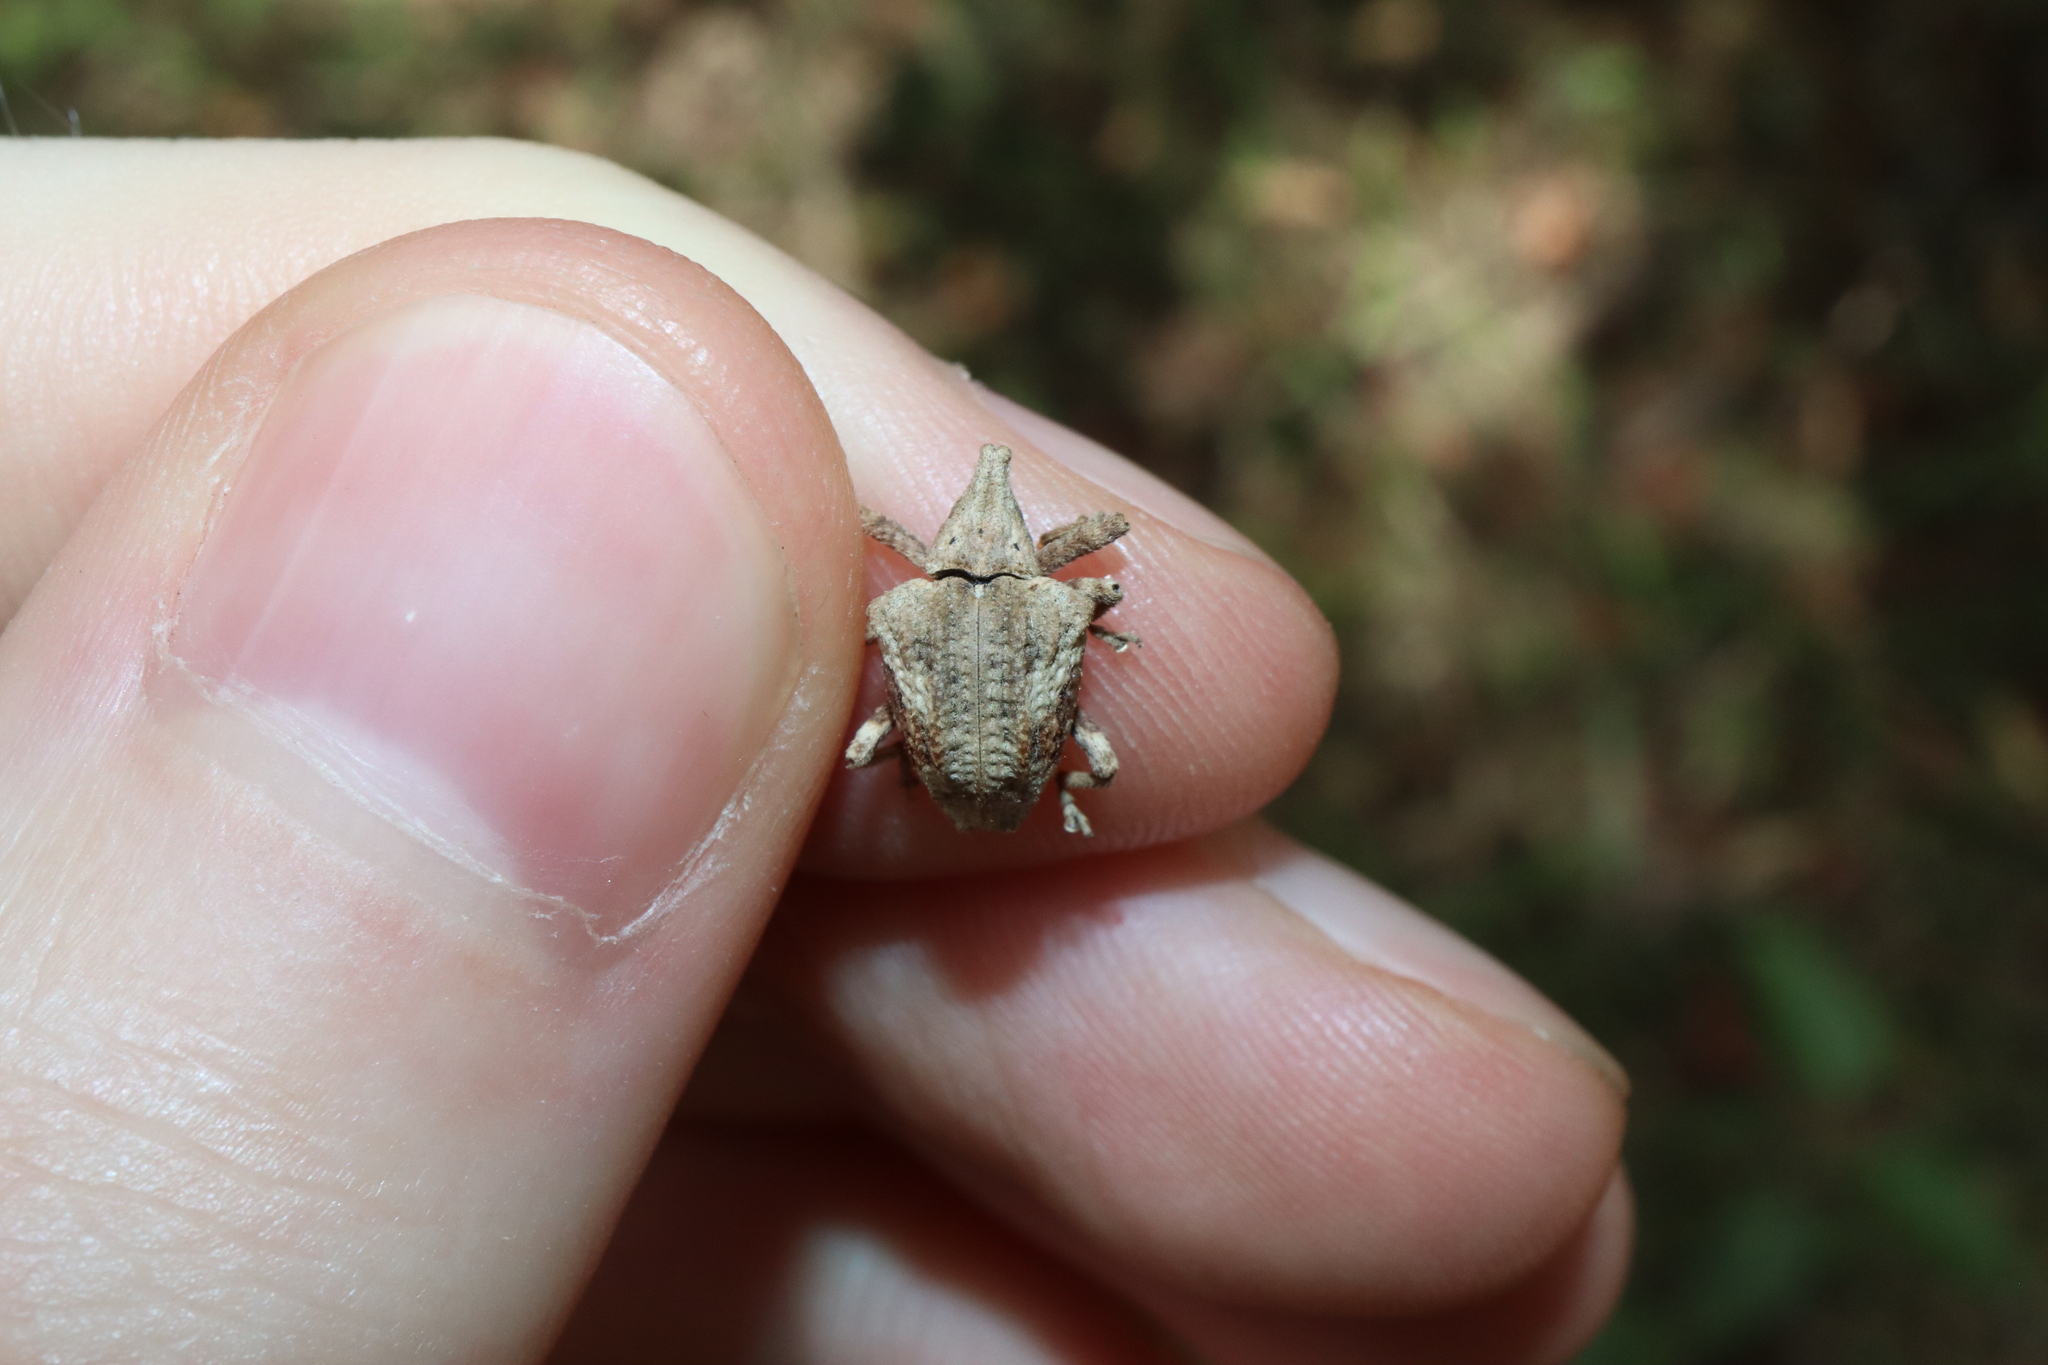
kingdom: Animalia
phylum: Arthropoda
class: Insecta
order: Coleoptera
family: Curculionidae
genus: Oemethylus
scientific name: Oemethylus
